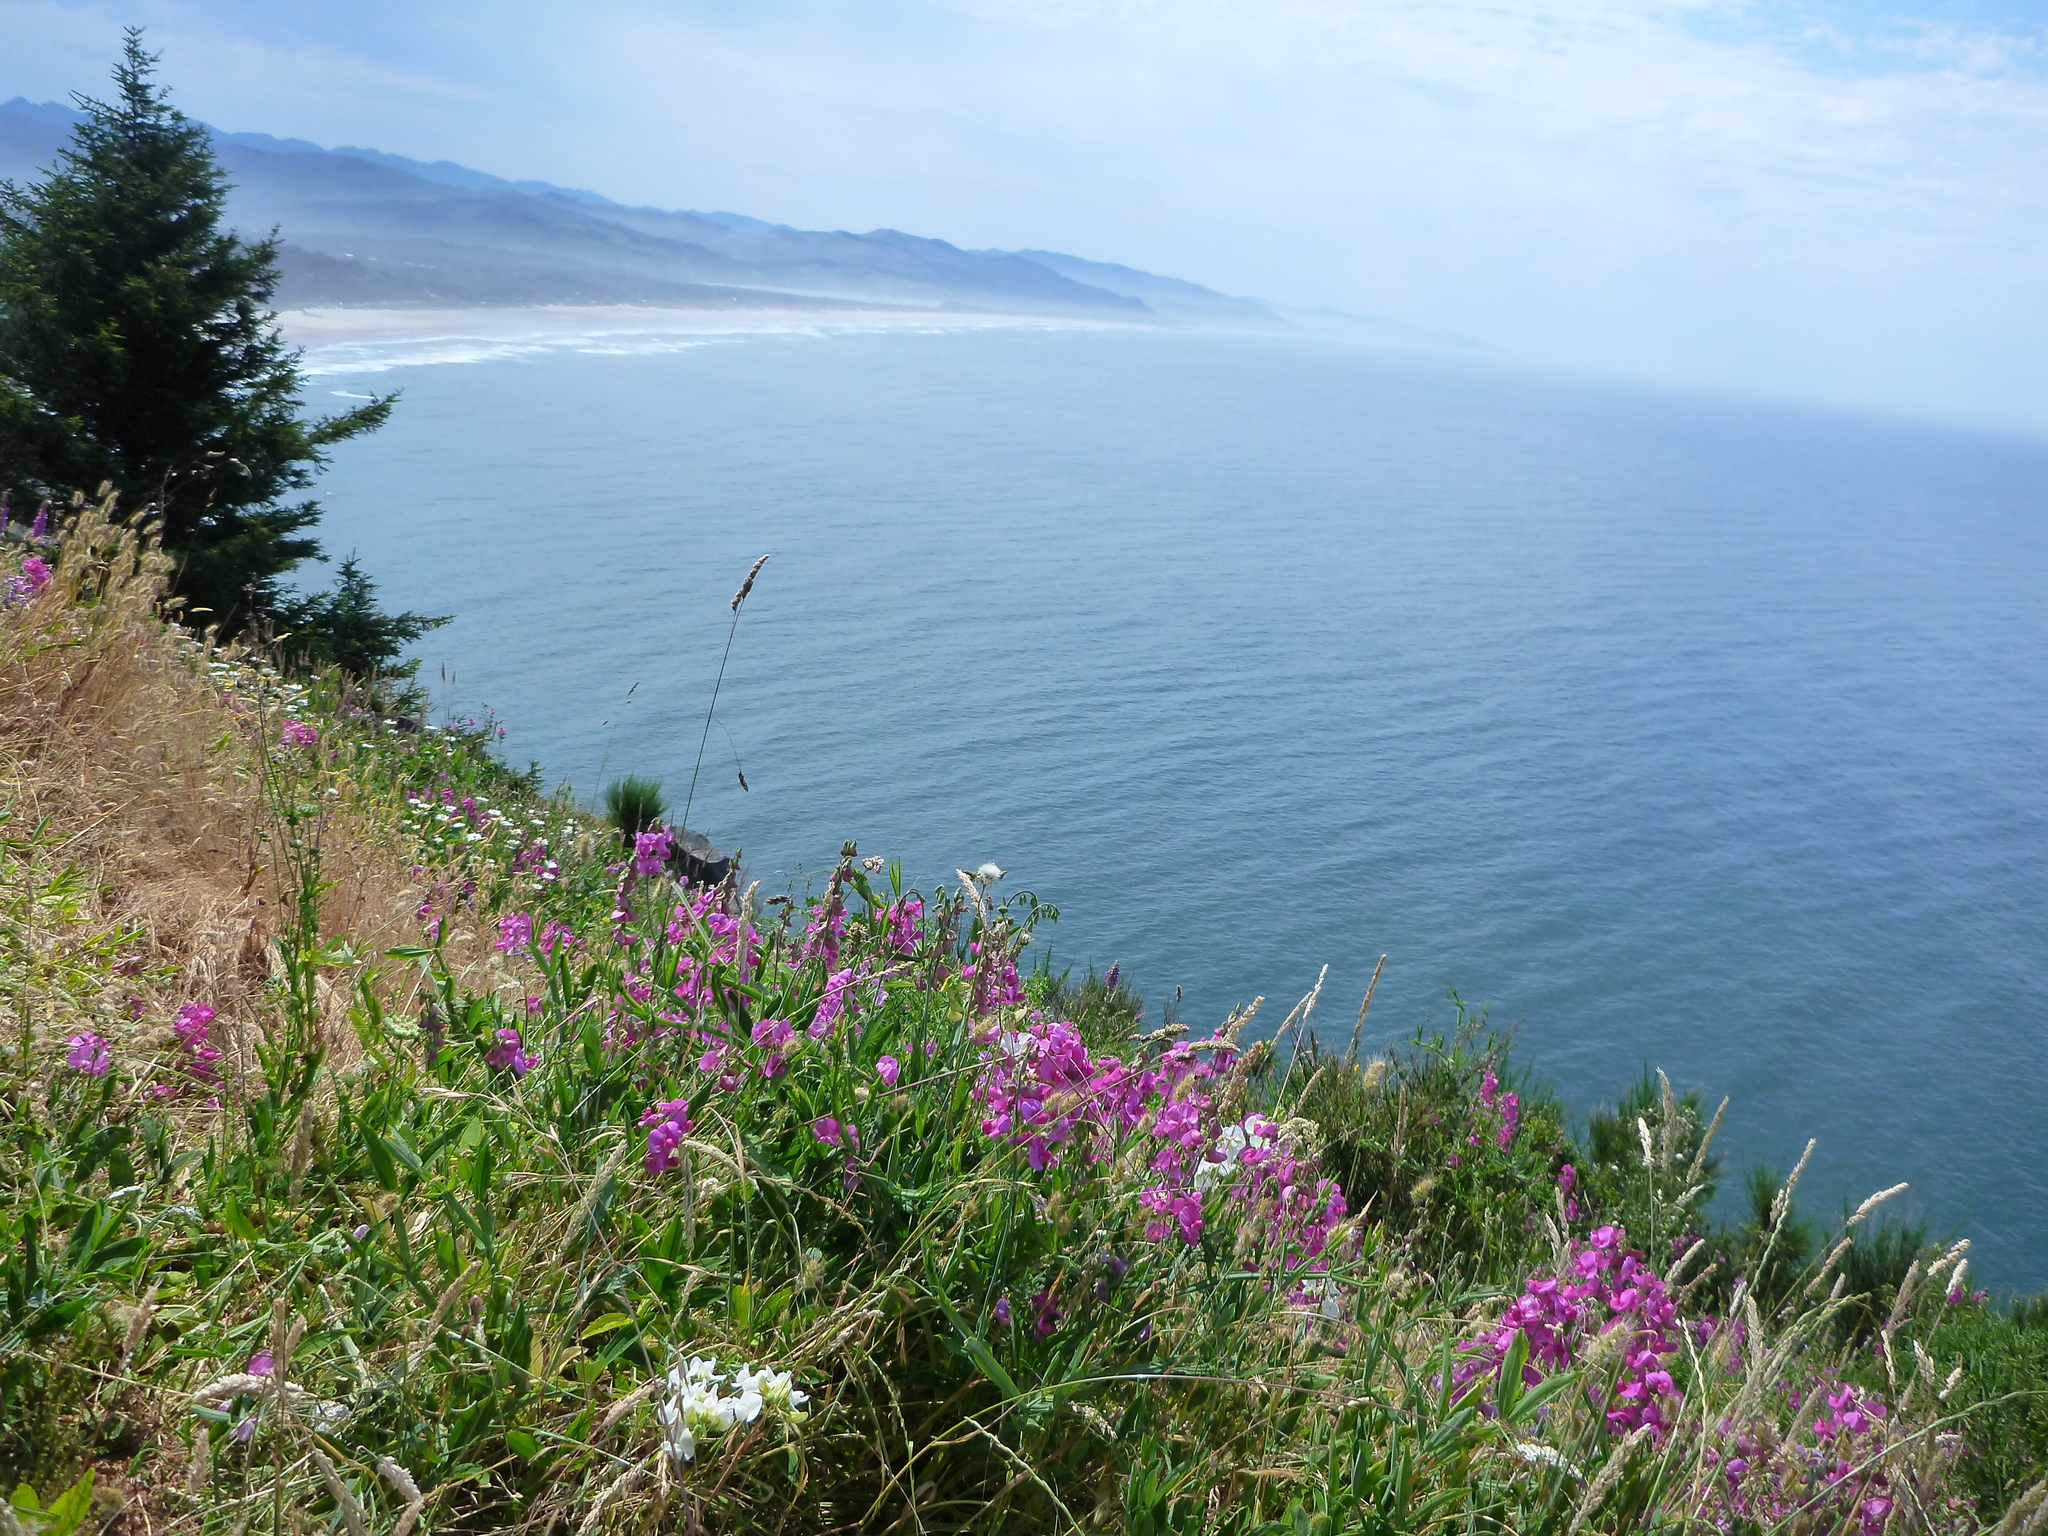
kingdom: Plantae
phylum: Tracheophyta
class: Magnoliopsida
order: Fabales
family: Fabaceae
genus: Lathyrus
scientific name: Lathyrus latifolius
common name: Perennial pea
